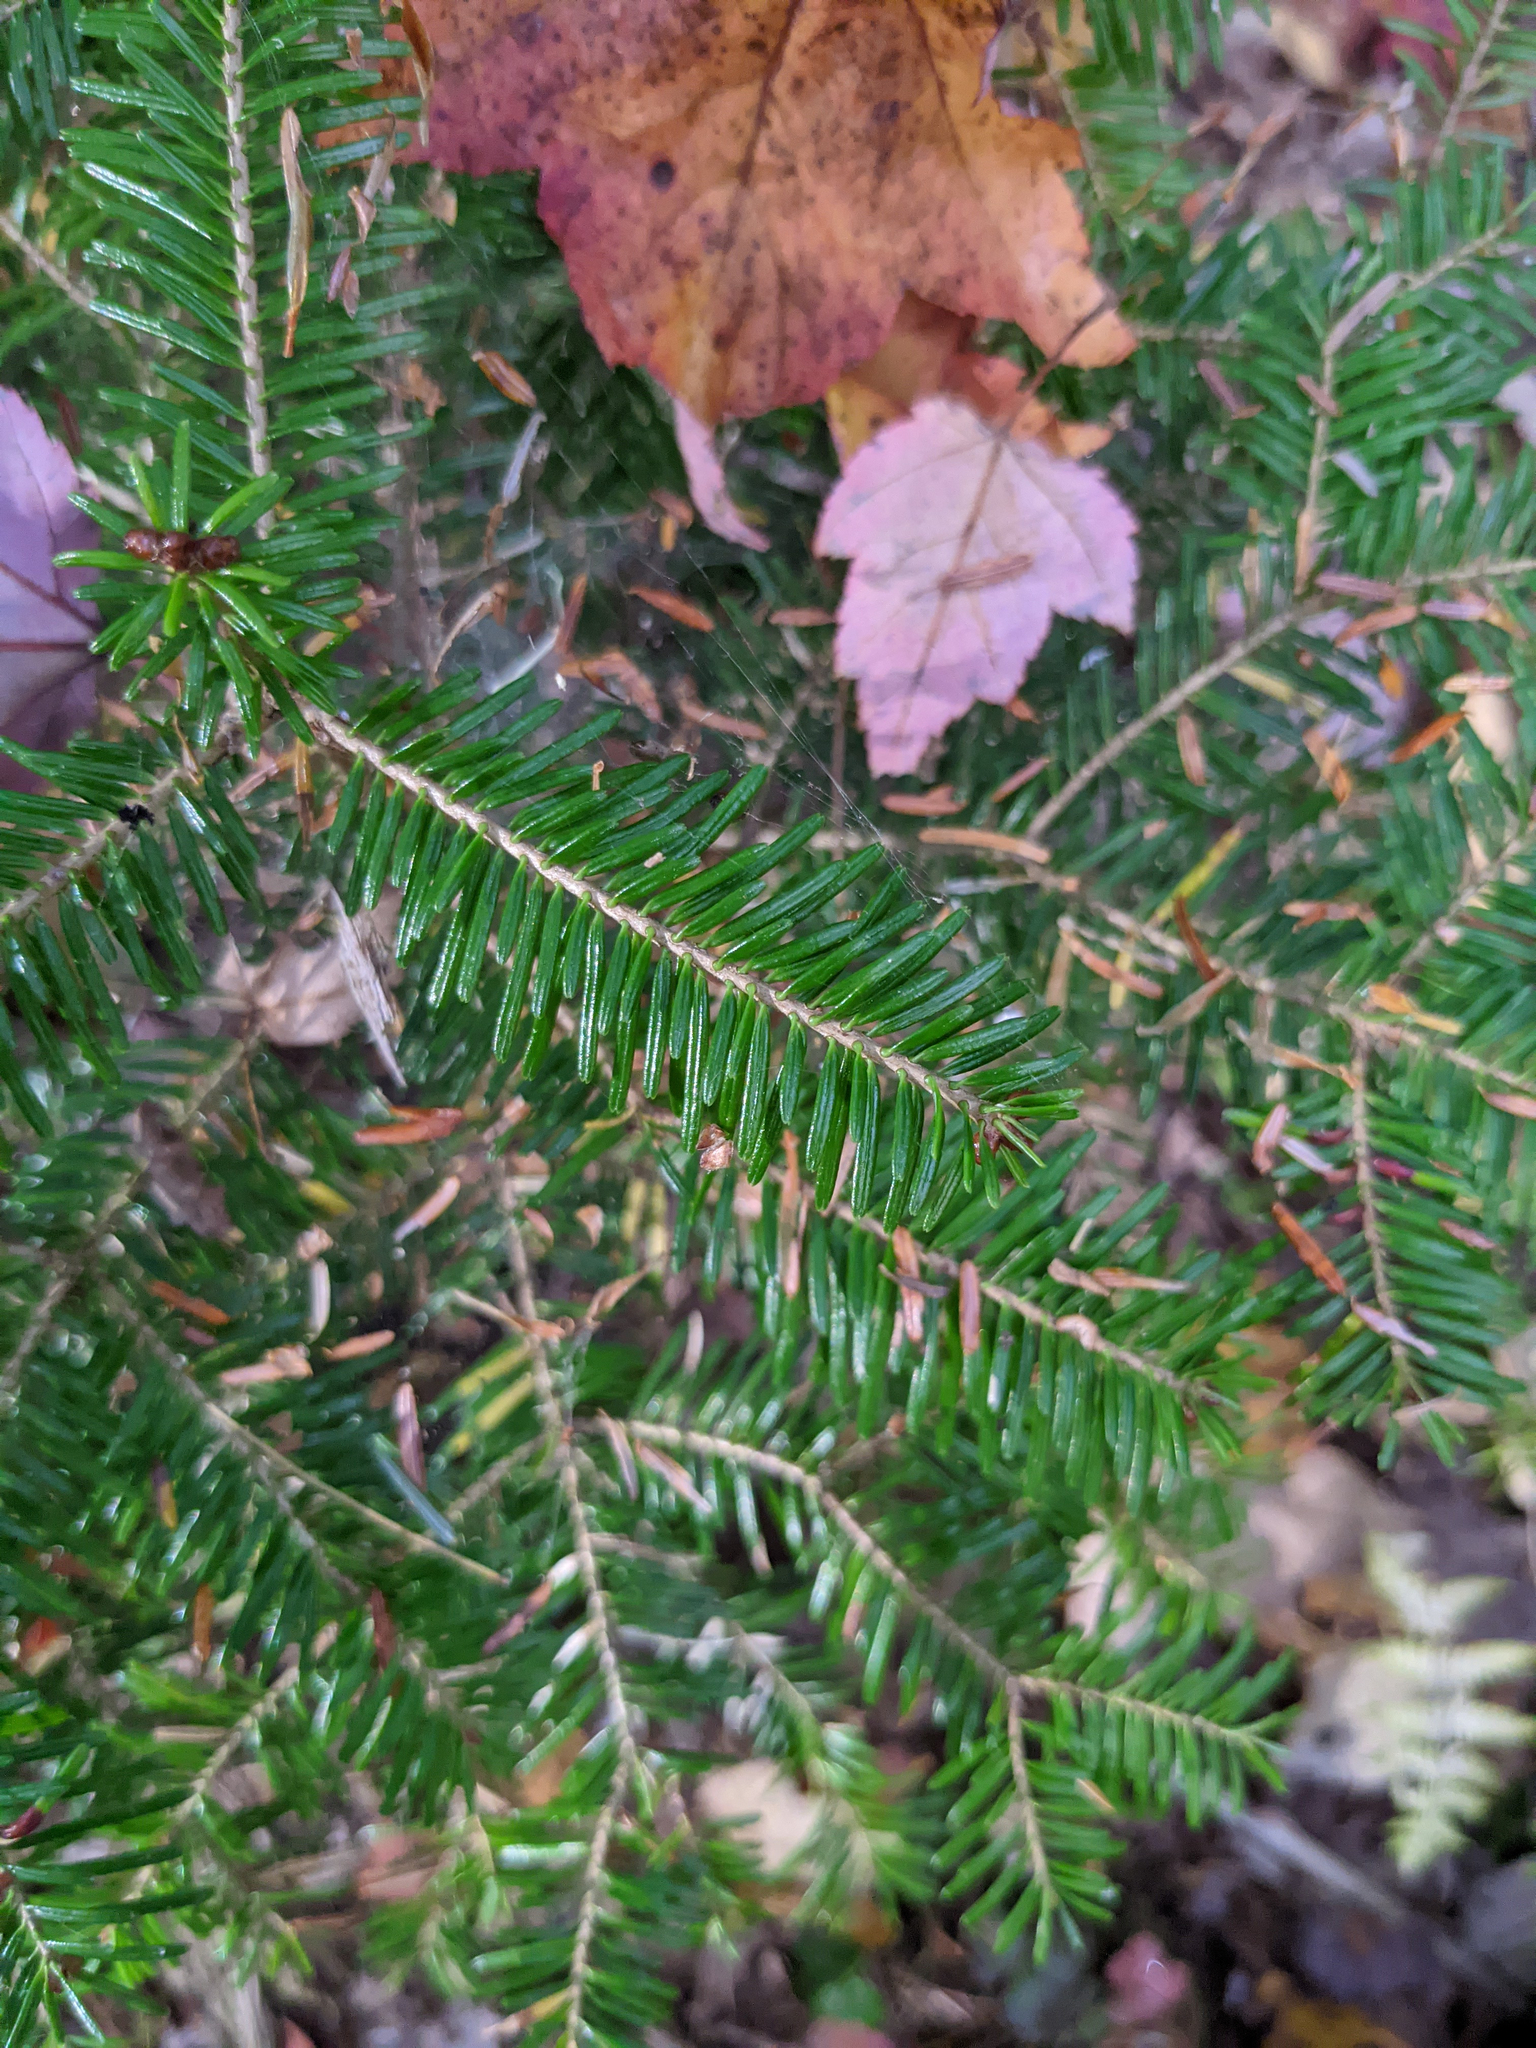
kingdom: Plantae
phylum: Tracheophyta
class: Pinopsida
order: Pinales
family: Pinaceae
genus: Abies
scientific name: Abies balsamea
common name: Balsam fir
